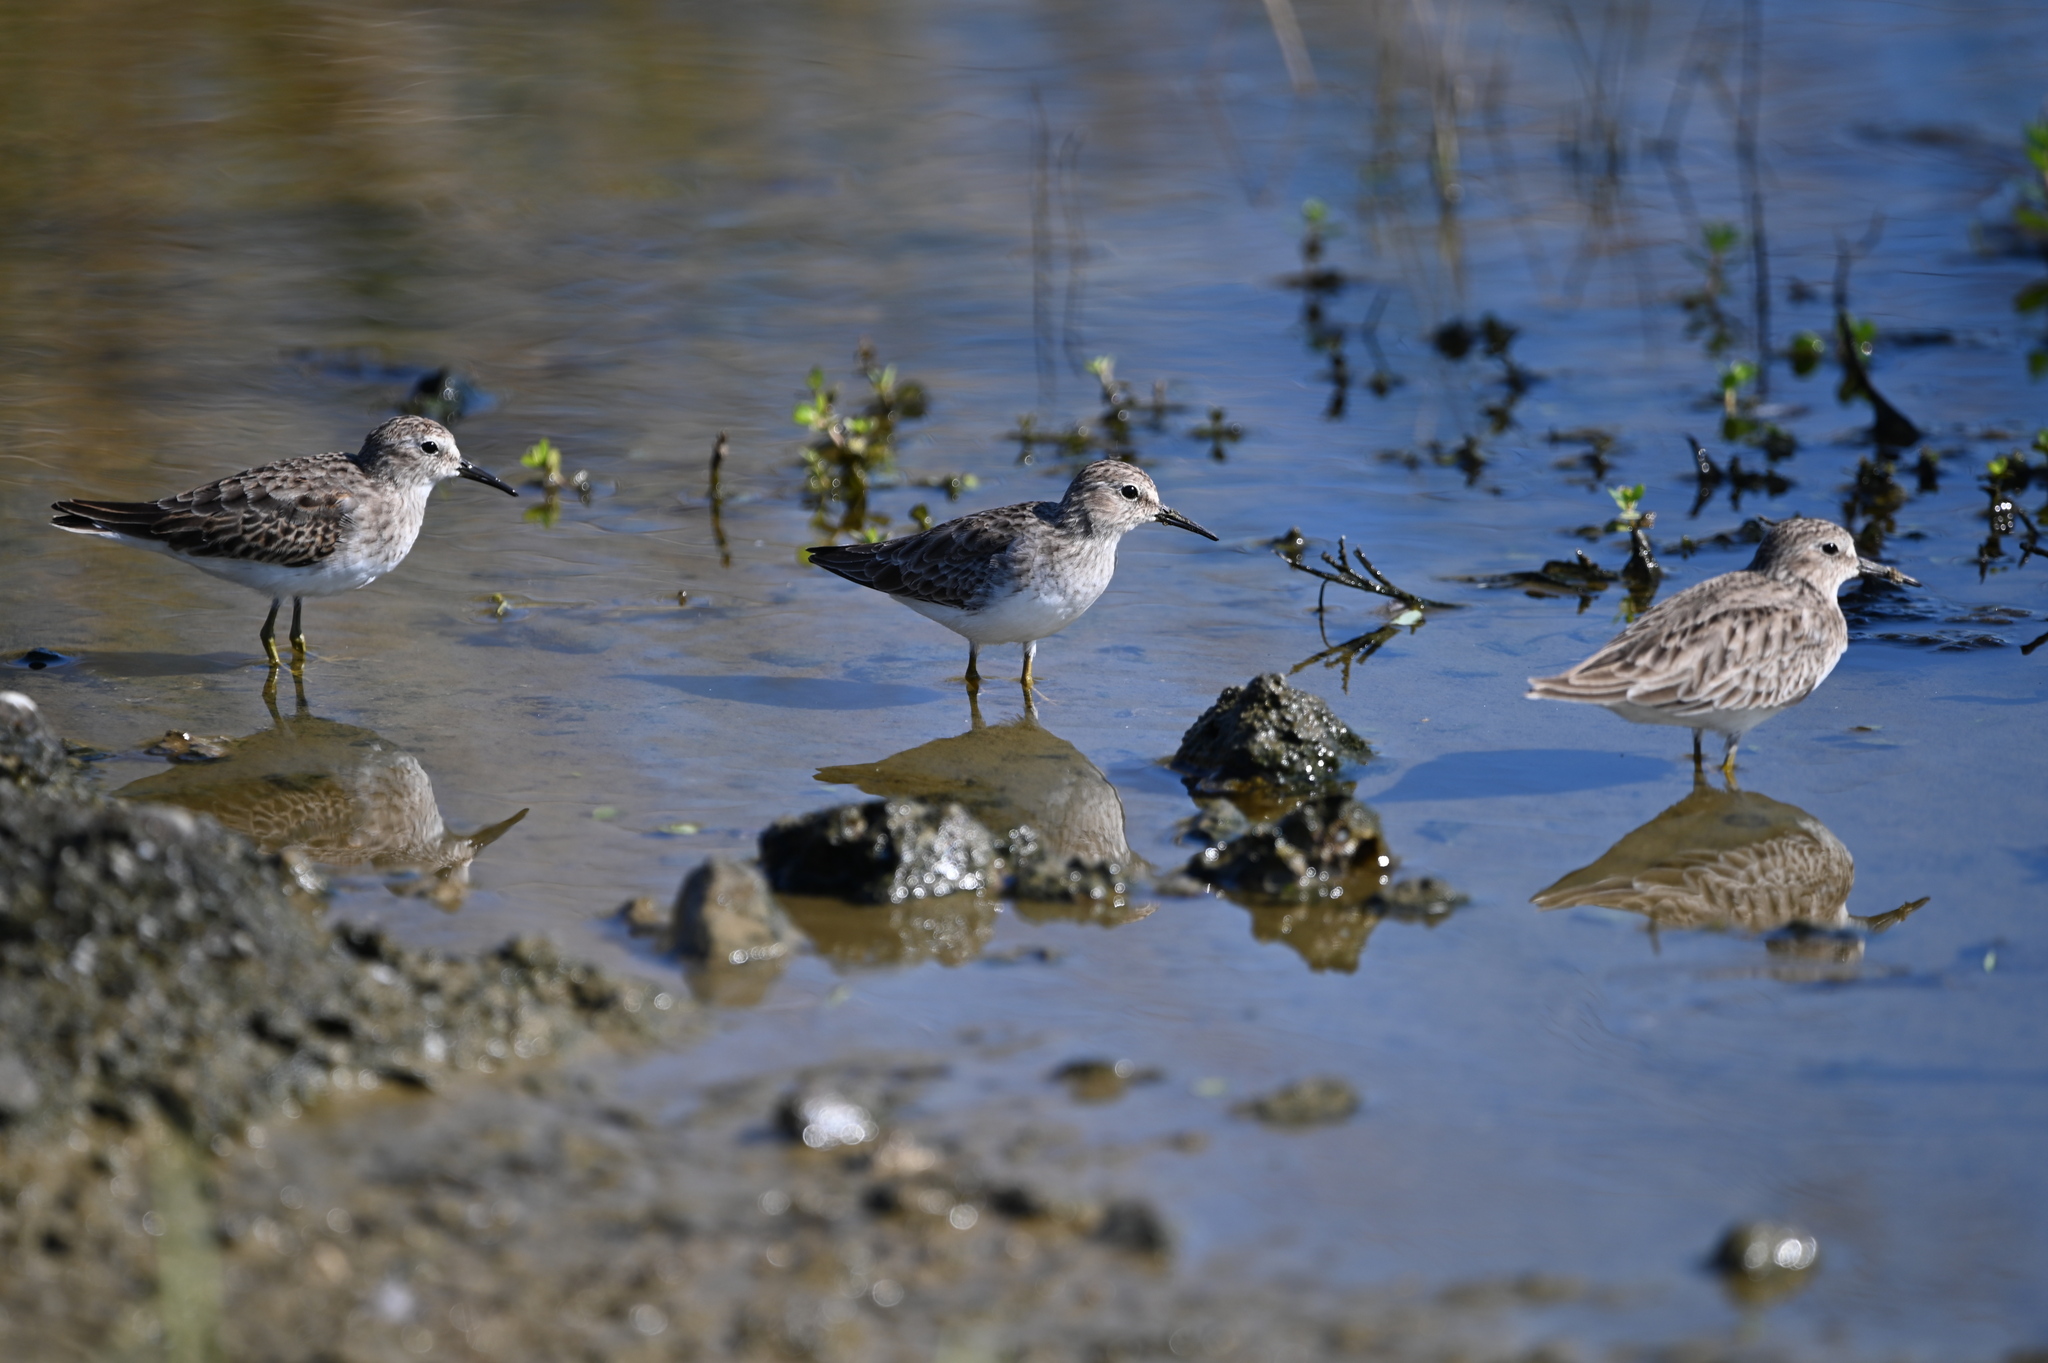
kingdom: Animalia
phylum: Chordata
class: Aves
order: Charadriiformes
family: Scolopacidae
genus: Calidris
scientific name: Calidris minutilla
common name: Least sandpiper
